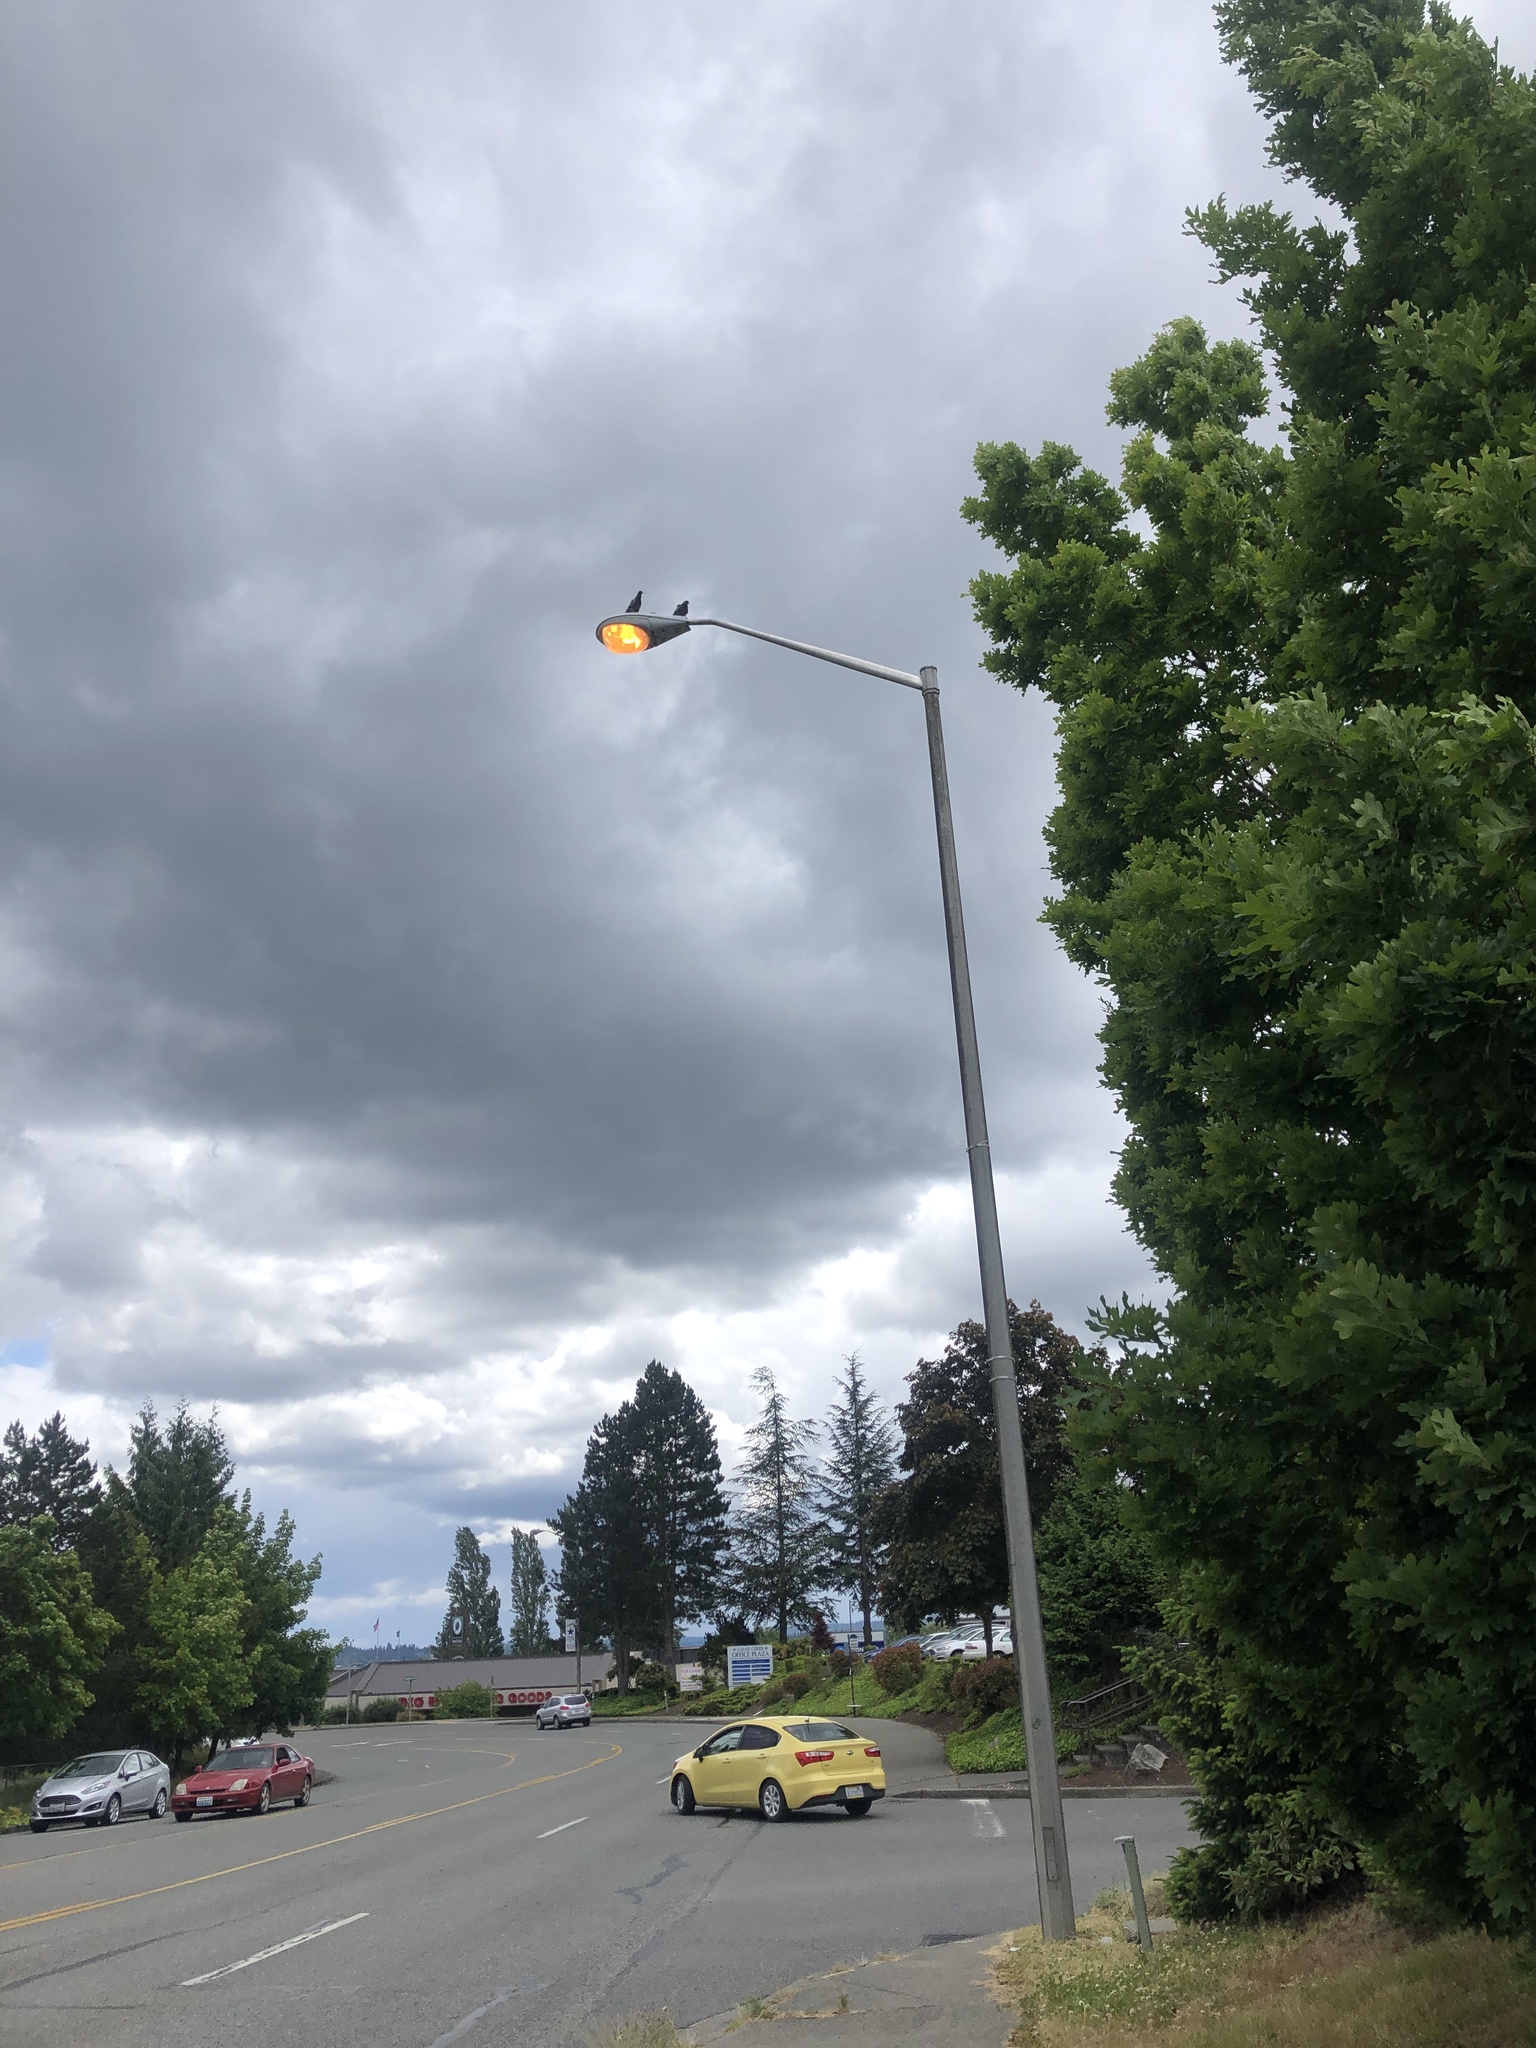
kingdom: Animalia
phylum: Chordata
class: Aves
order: Columbiformes
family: Columbidae
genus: Columba
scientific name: Columba livia
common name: Rock pigeon
